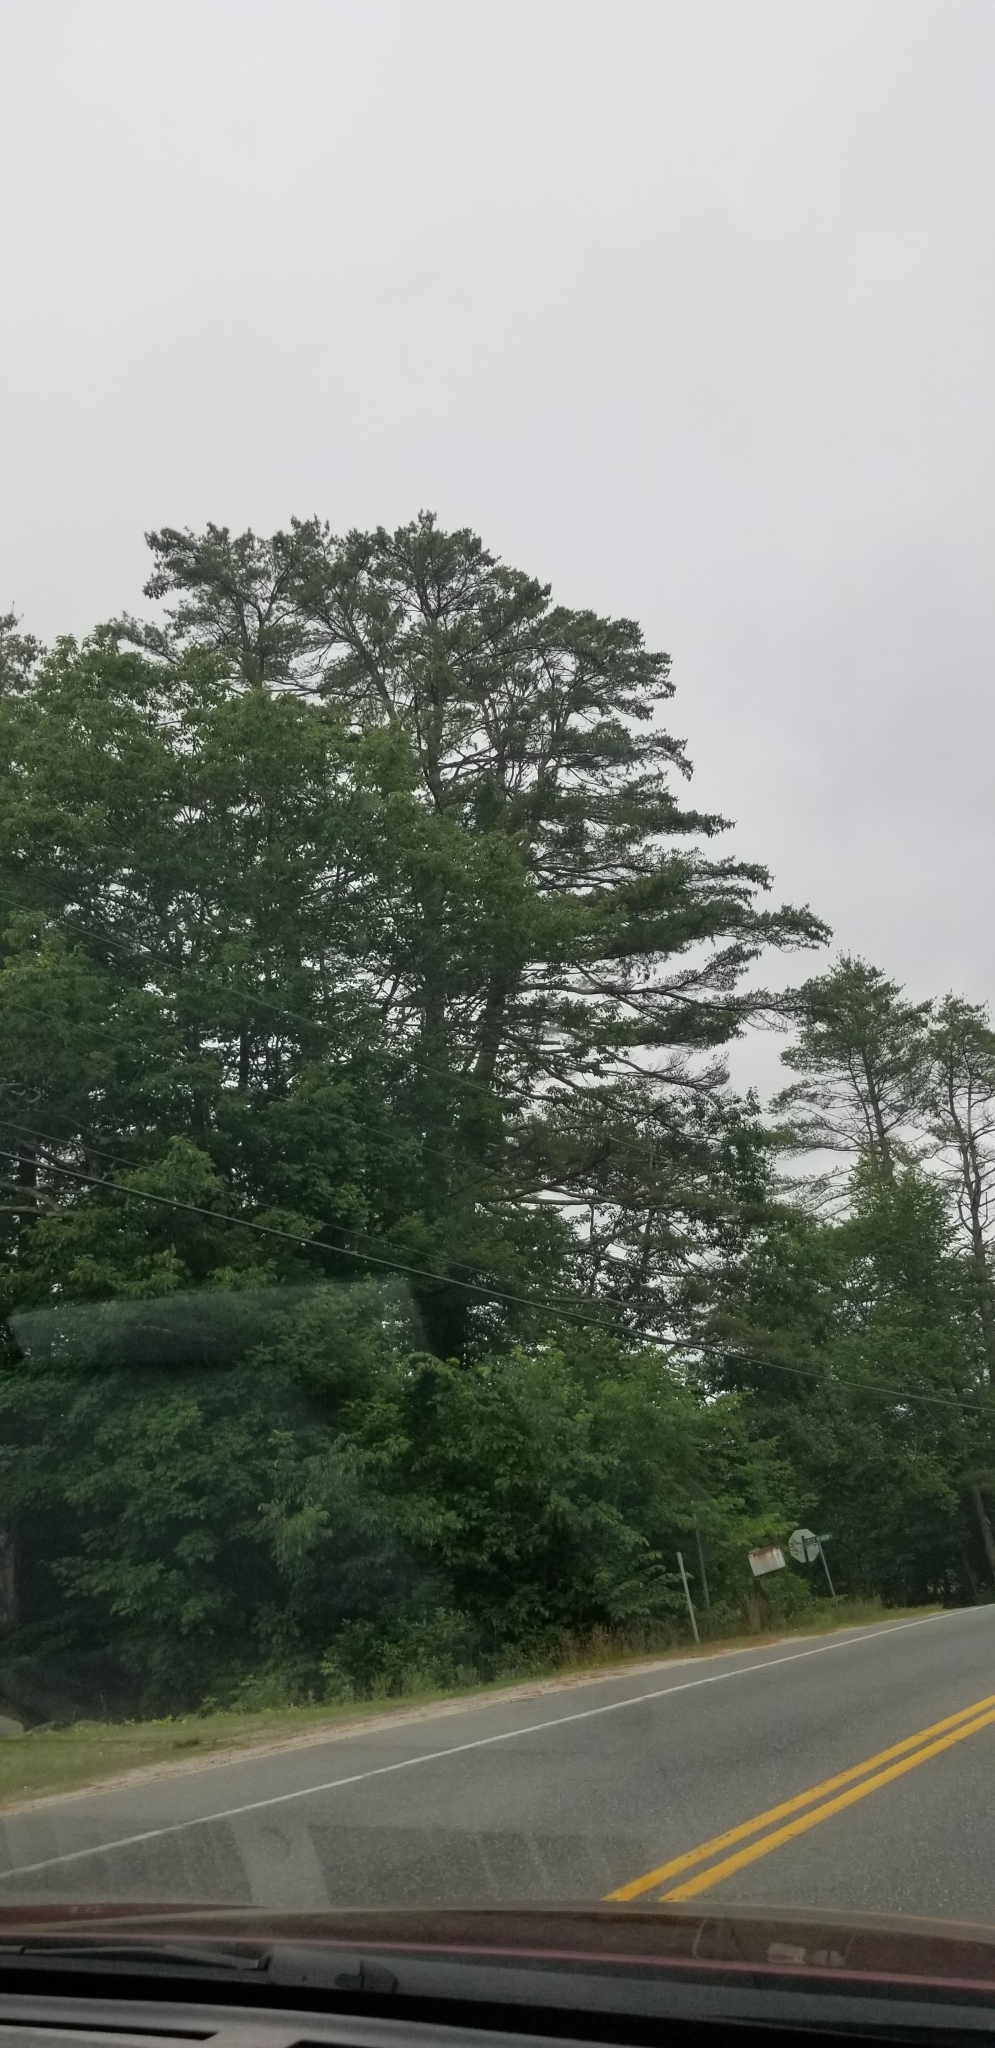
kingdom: Plantae
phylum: Tracheophyta
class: Pinopsida
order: Pinales
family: Pinaceae
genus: Pinus
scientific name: Pinus strobus
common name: Weymouth pine
